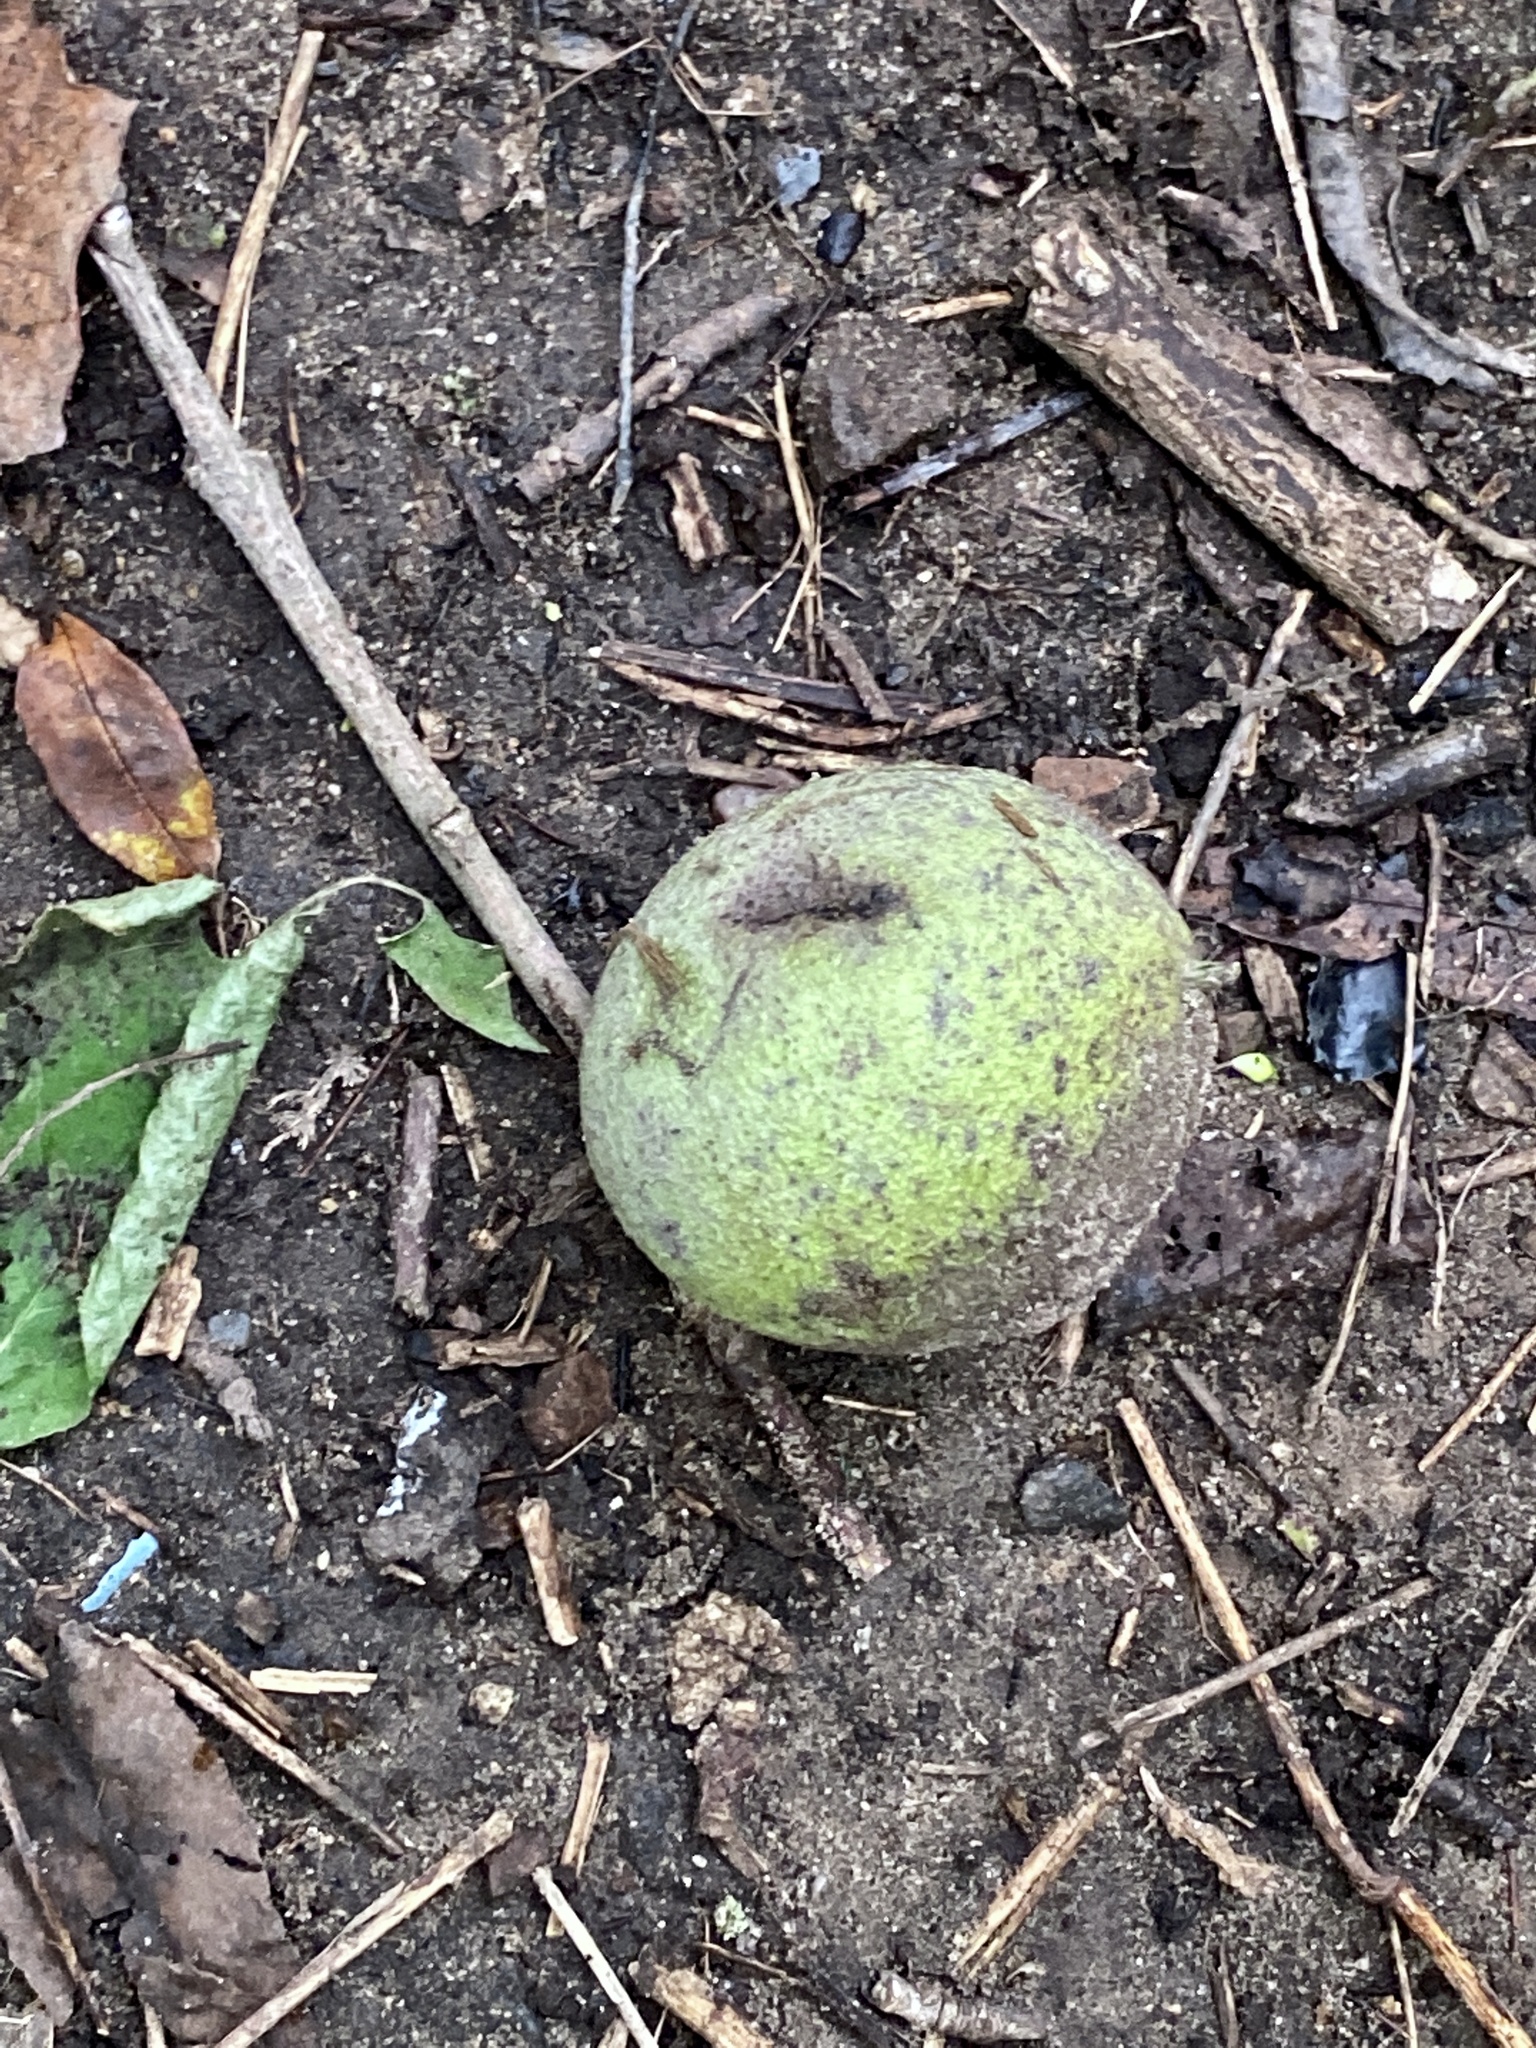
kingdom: Plantae
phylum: Tracheophyta
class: Magnoliopsida
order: Fagales
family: Juglandaceae
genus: Juglans
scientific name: Juglans nigra
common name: Black walnut
